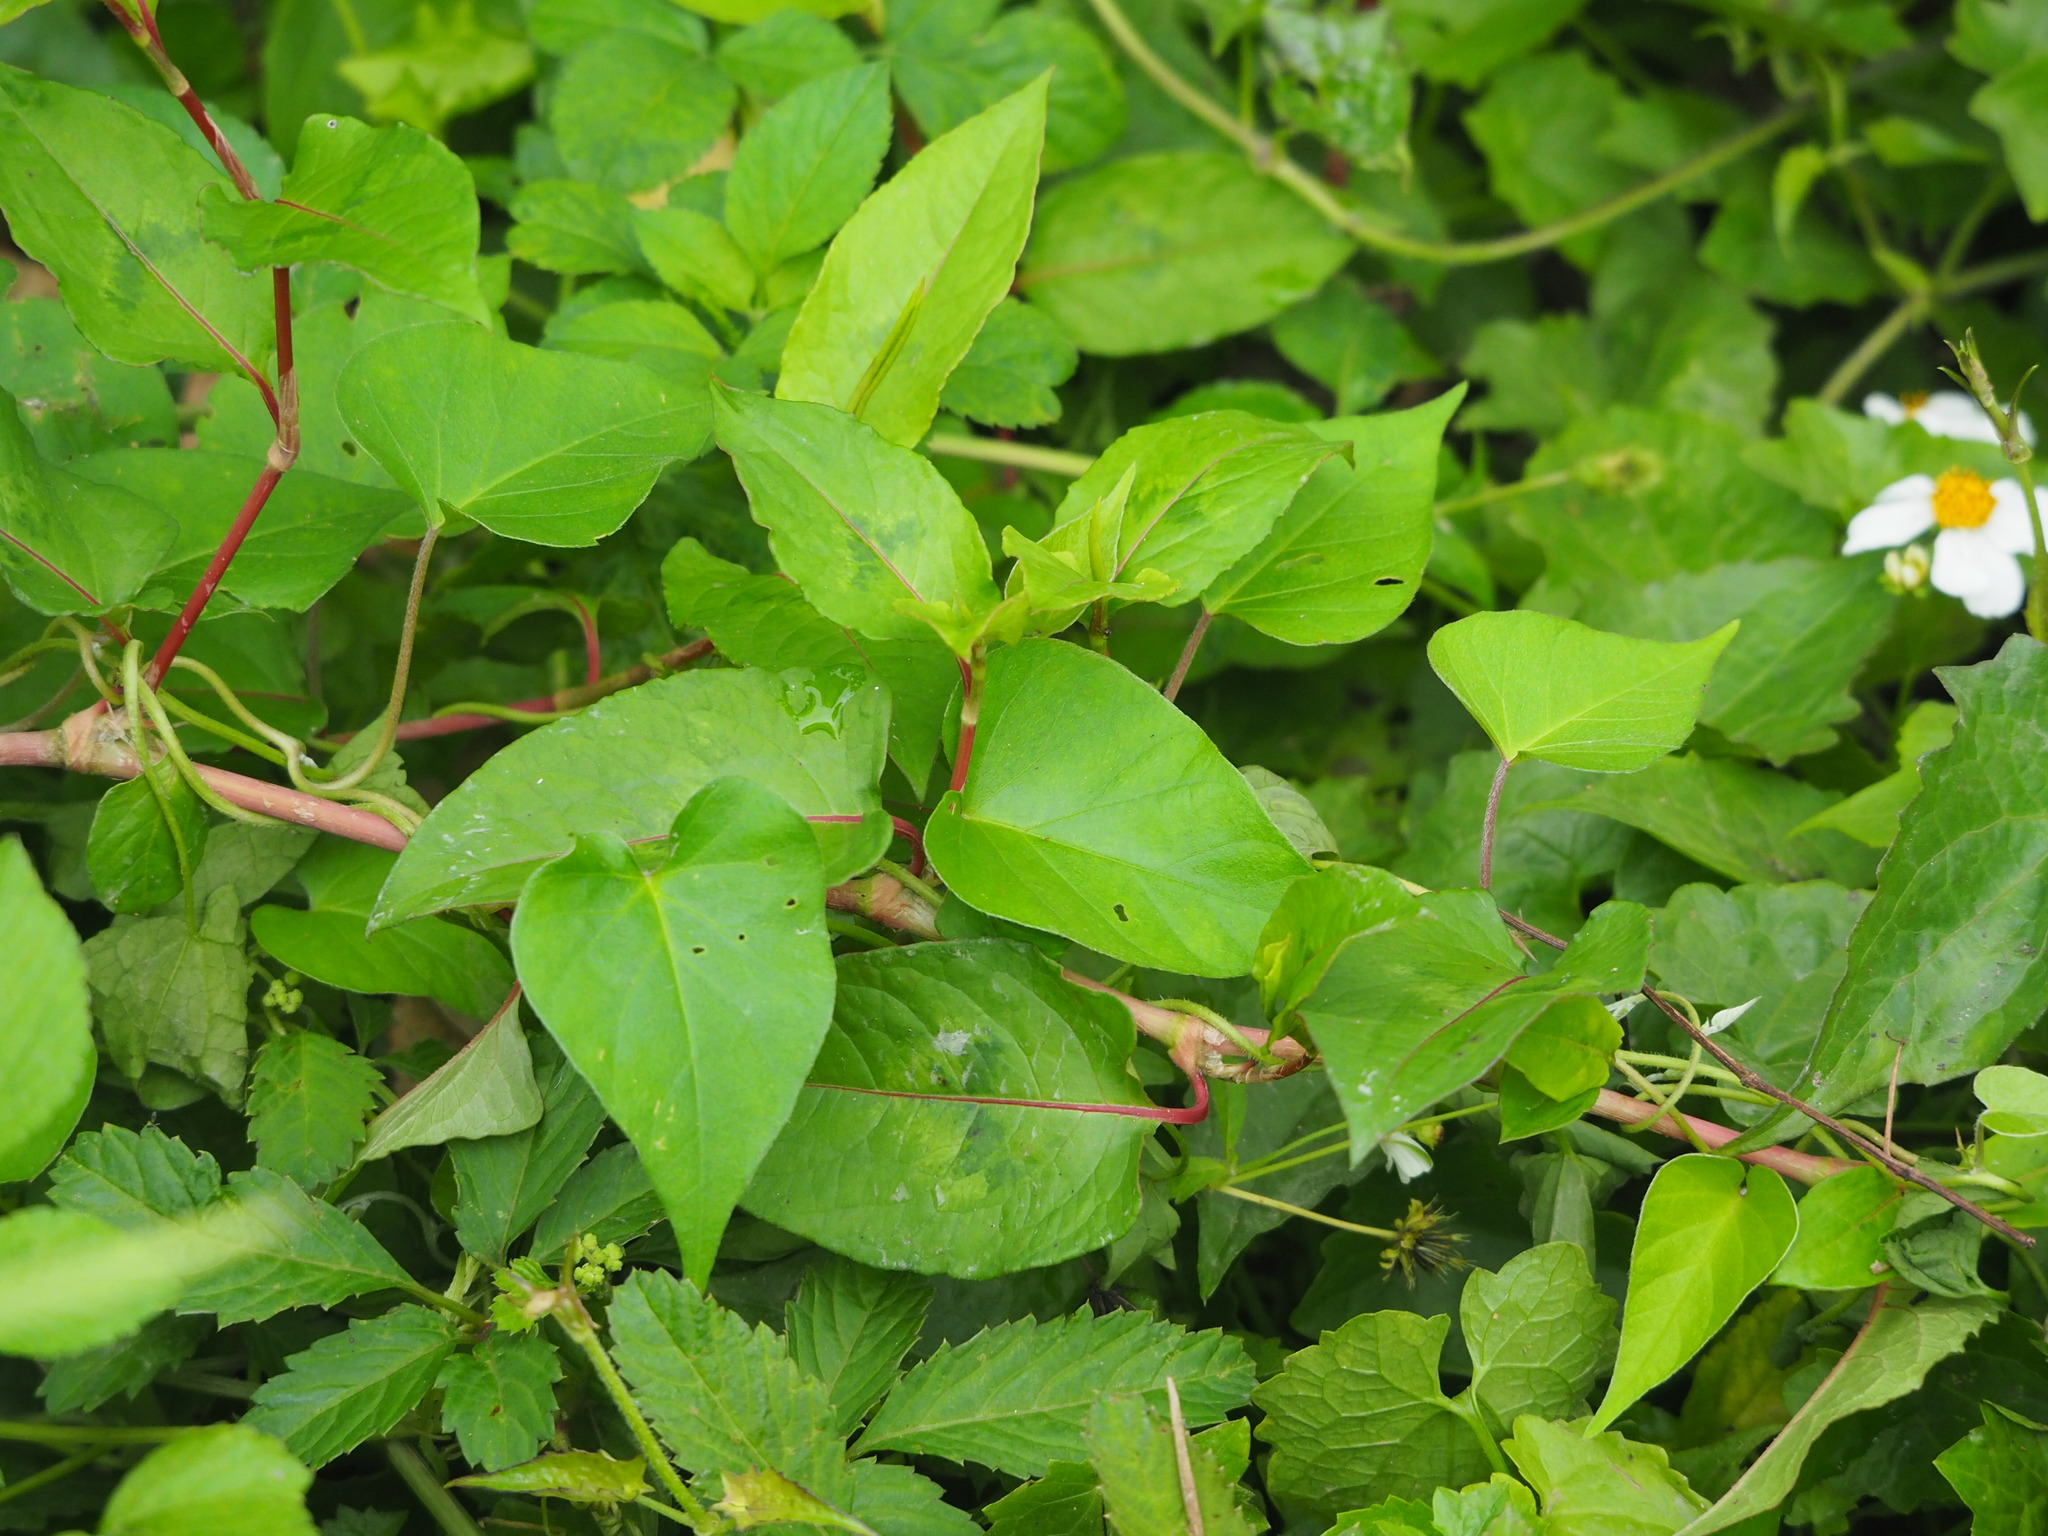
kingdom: Plantae
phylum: Tracheophyta
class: Magnoliopsida
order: Caryophyllales
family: Polygonaceae
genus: Persicaria
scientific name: Persicaria chinensis
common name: Chinese knotweed
